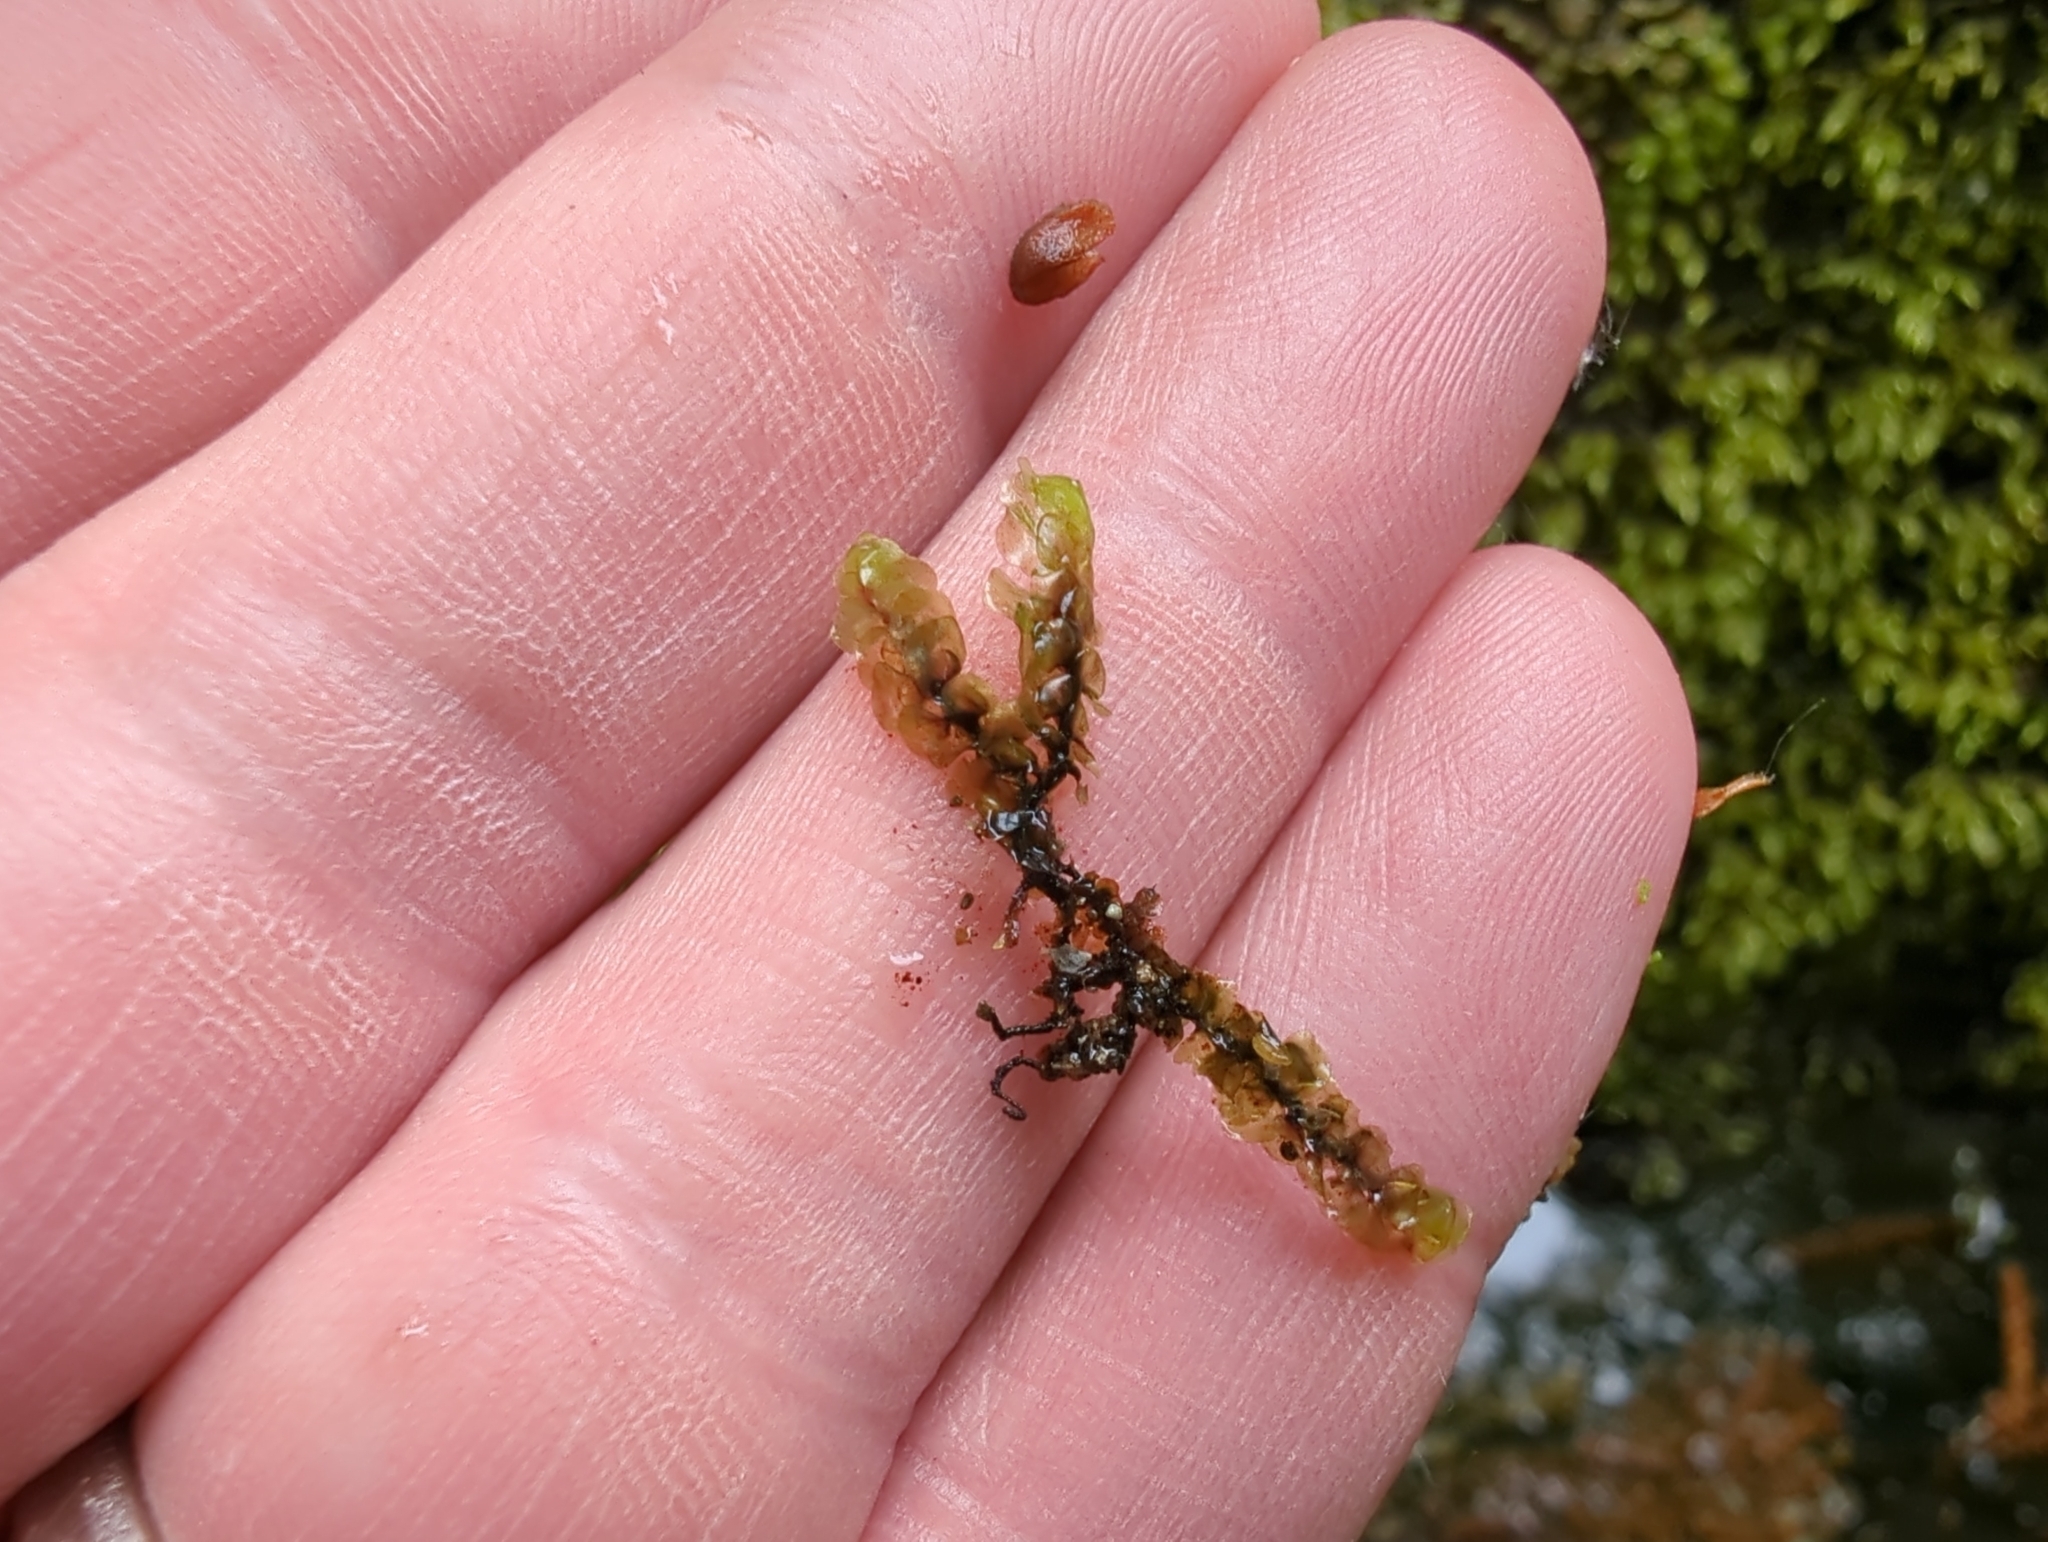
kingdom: Plantae
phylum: Marchantiophyta
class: Jungermanniopsida
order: Jungermanniales
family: Scapaniaceae
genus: Scapania
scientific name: Scapania undulata
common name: Water earwort
